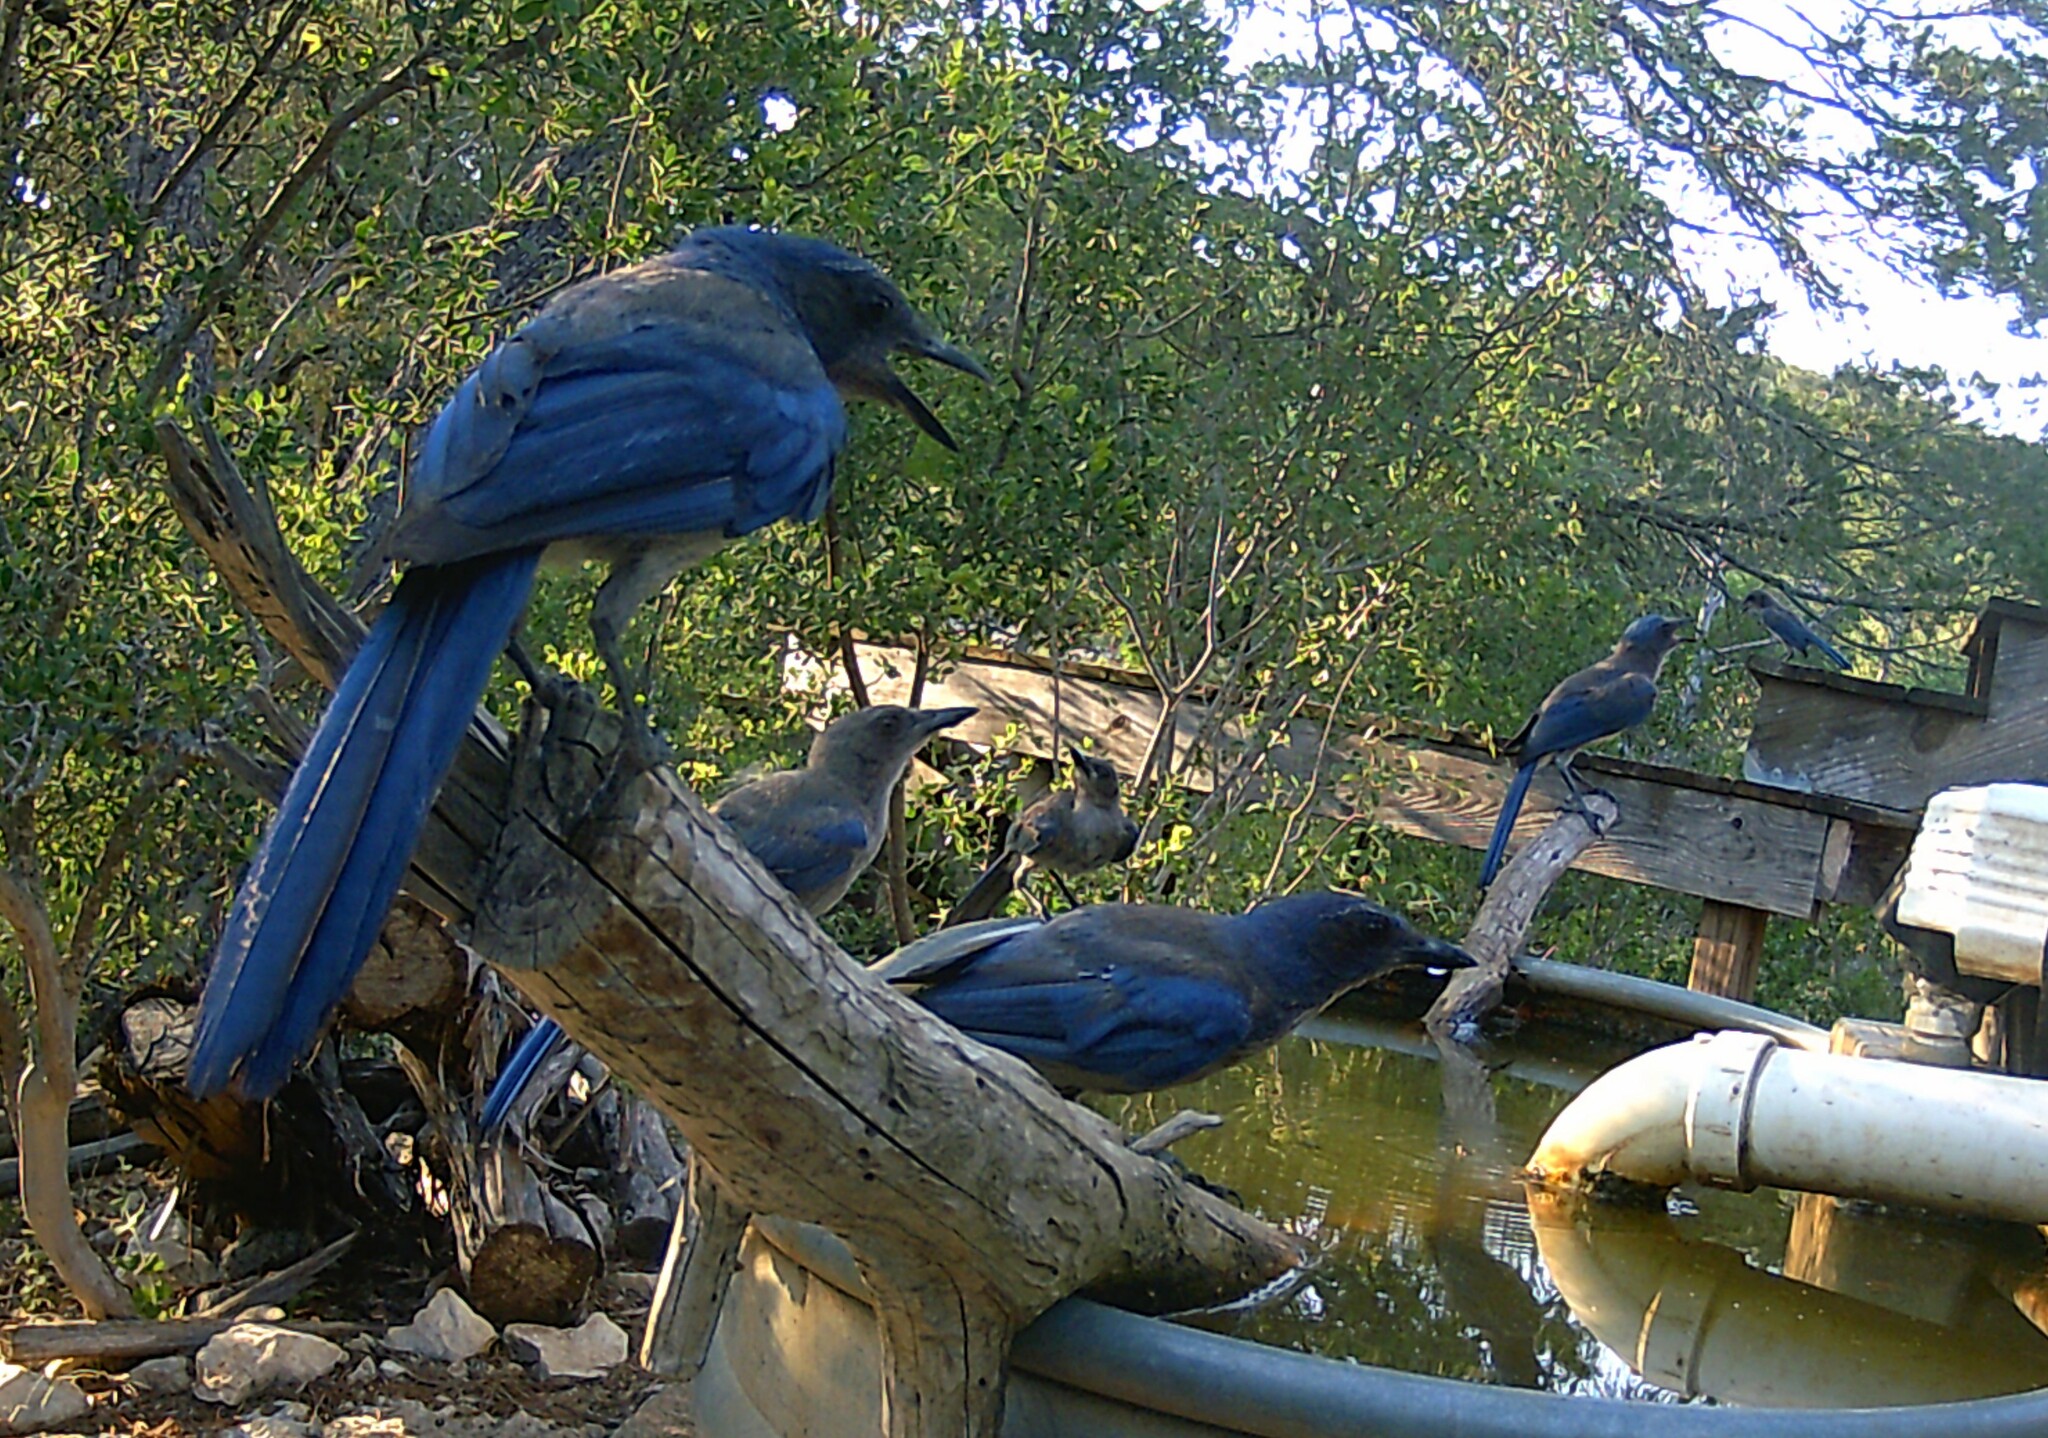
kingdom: Animalia
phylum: Chordata
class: Aves
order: Passeriformes
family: Corvidae
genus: Aphelocoma
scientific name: Aphelocoma woodhouseii
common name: Woodhouse's scrub-jay
